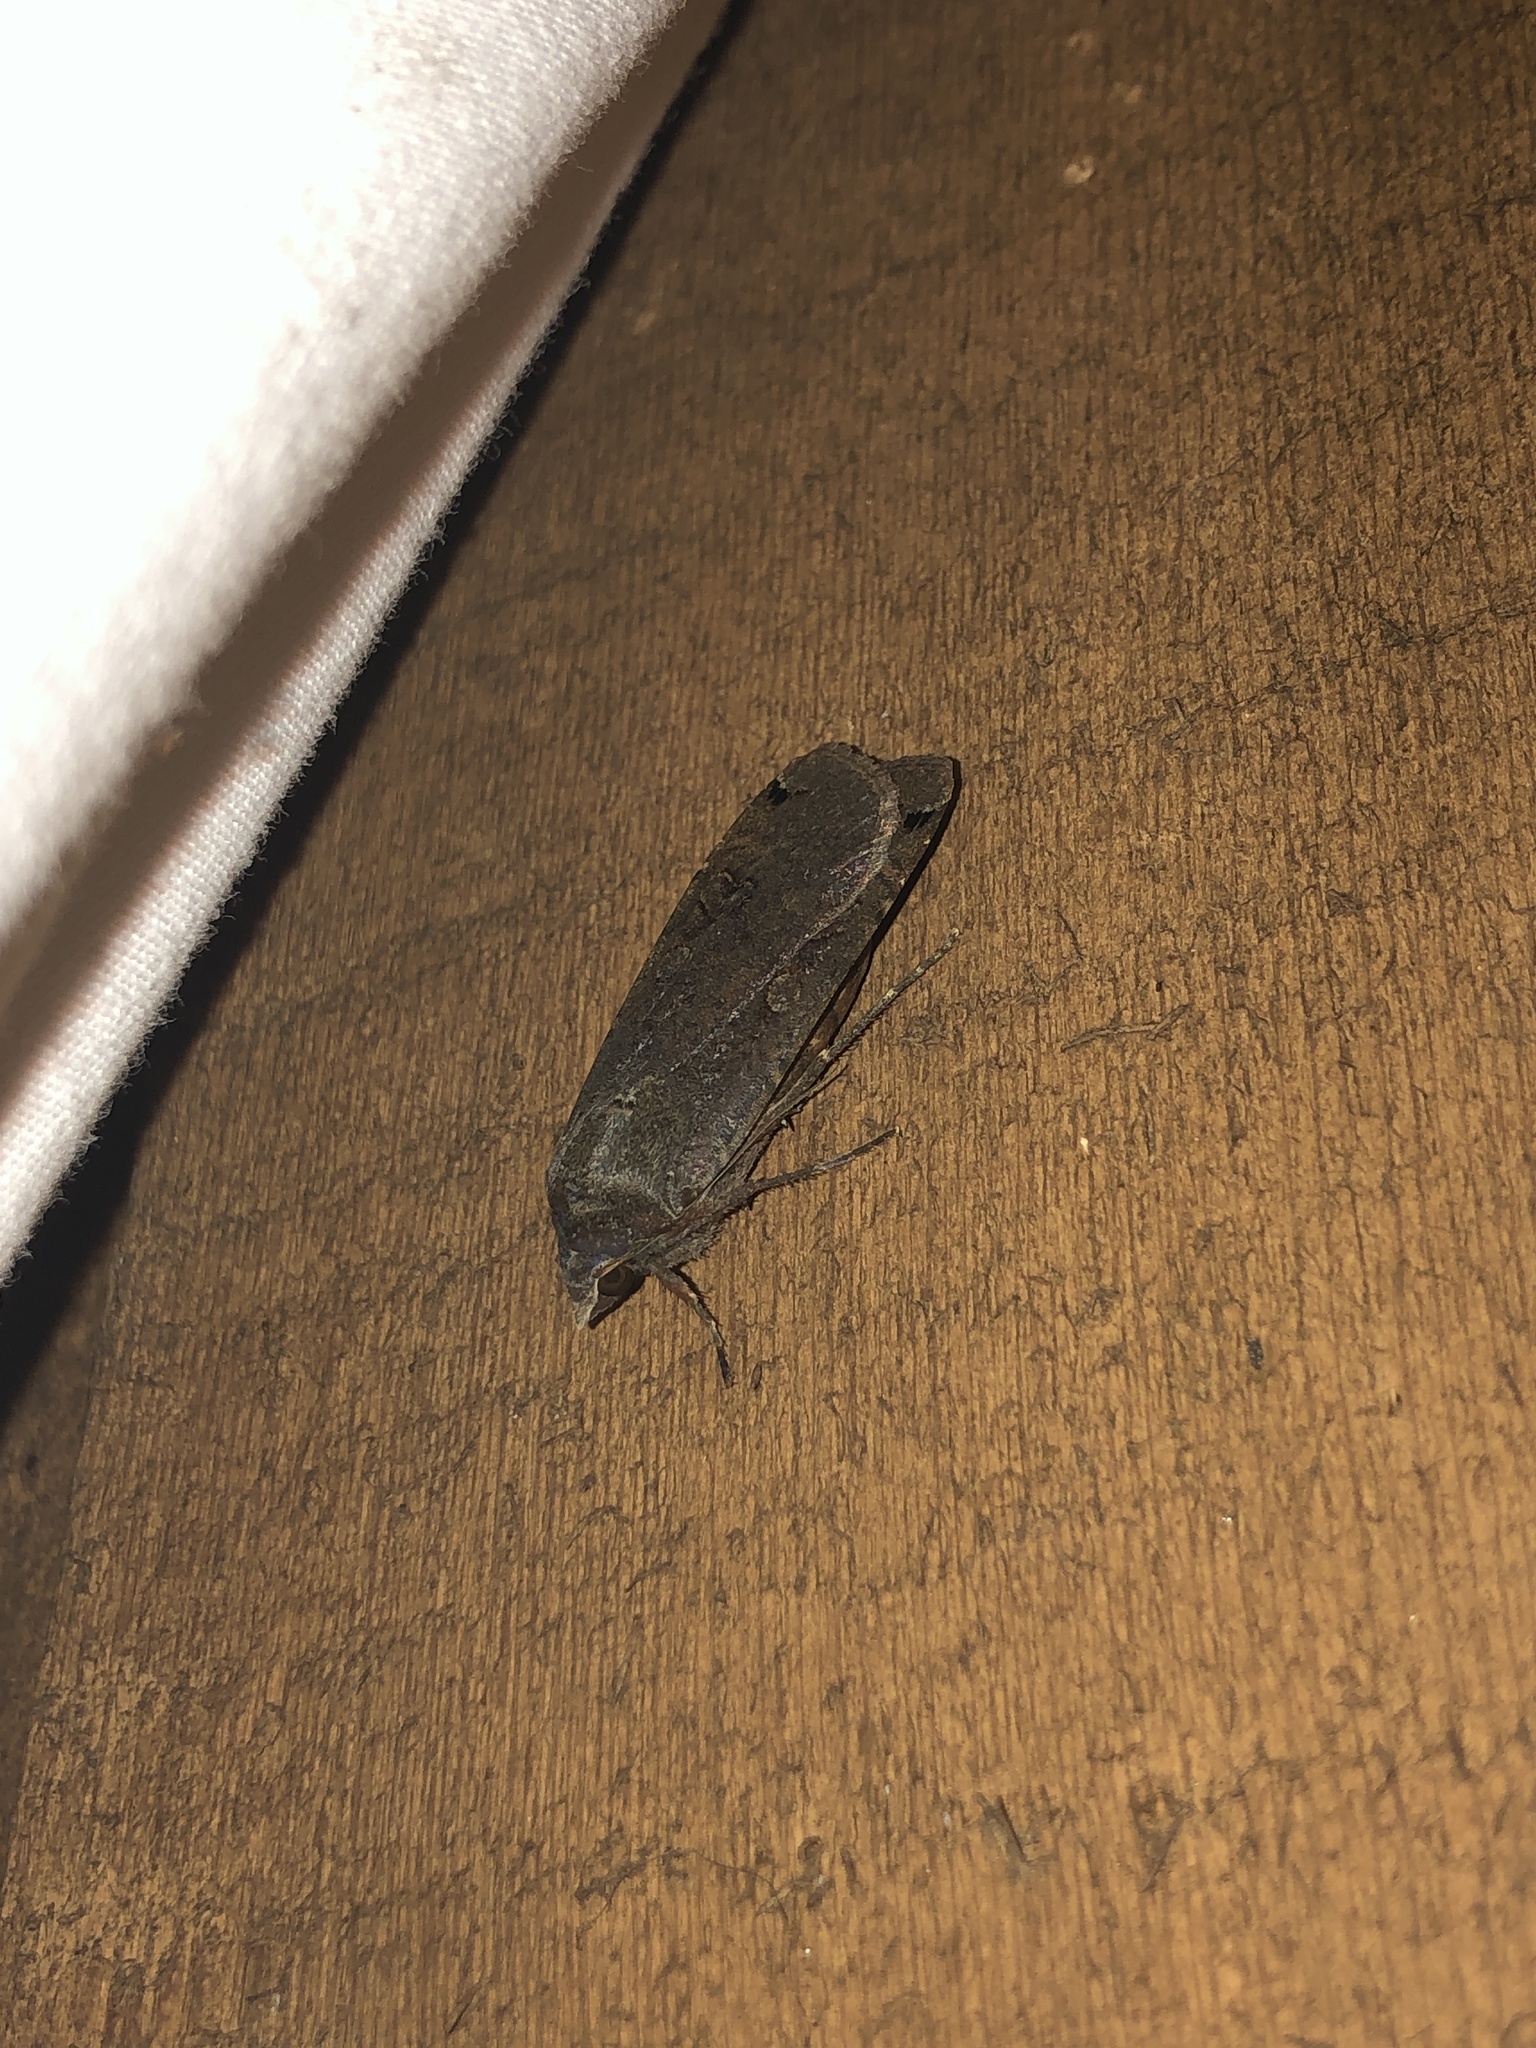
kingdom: Animalia
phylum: Arthropoda
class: Insecta
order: Lepidoptera
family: Noctuidae
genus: Noctua
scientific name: Noctua pronuba
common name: Large yellow underwing
